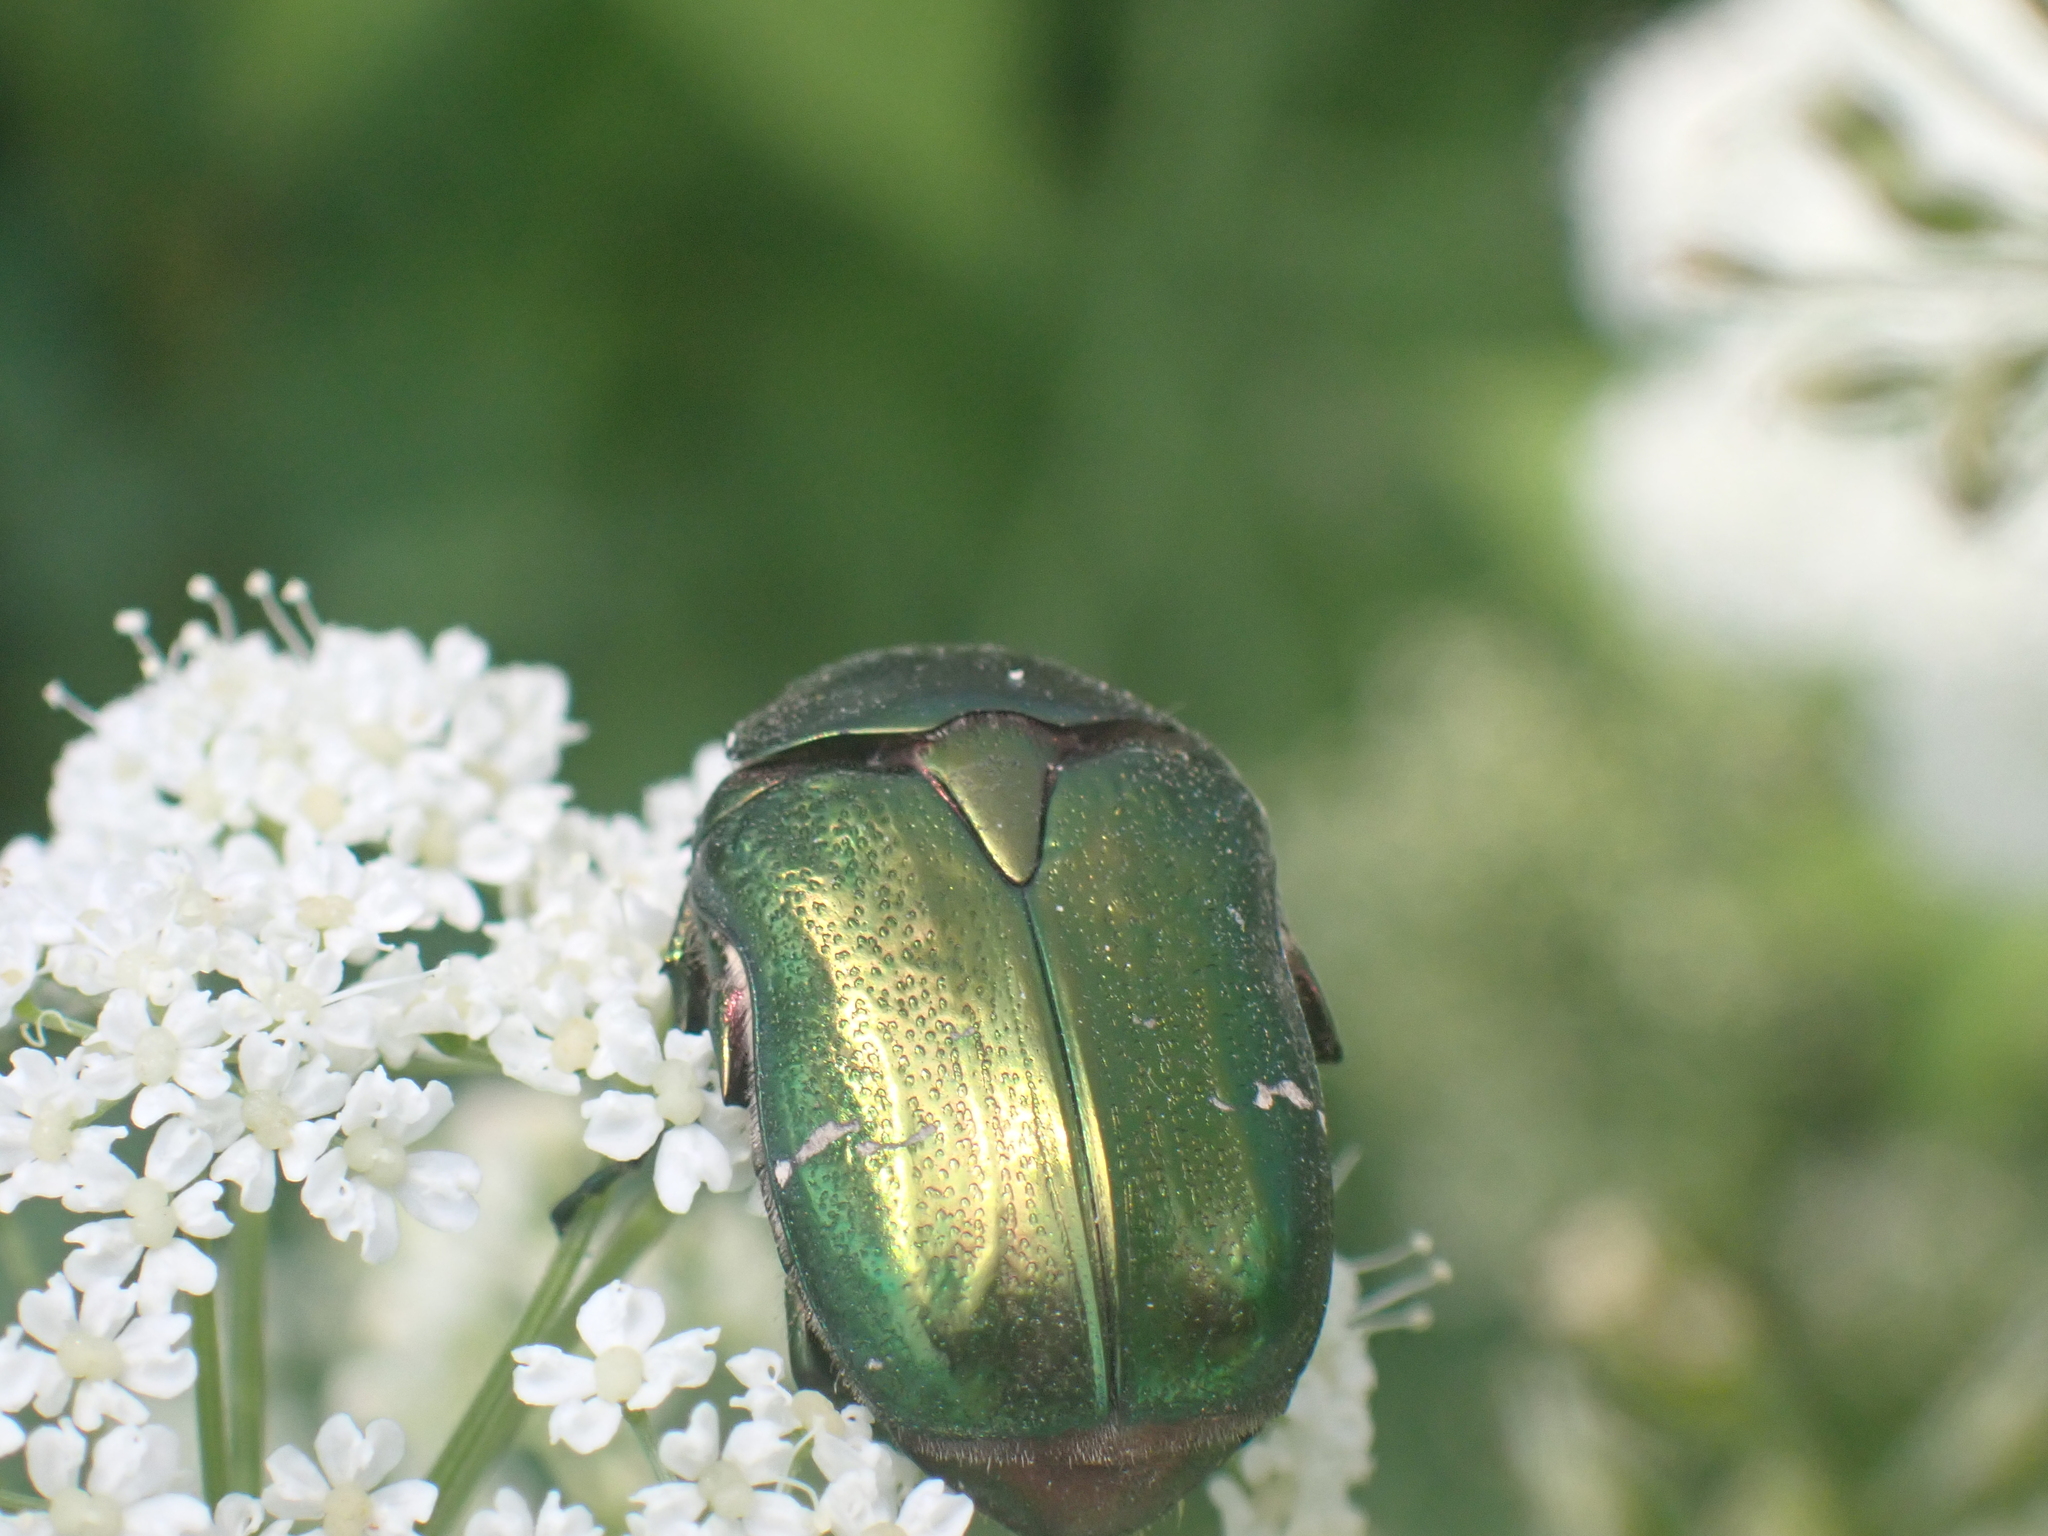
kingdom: Animalia
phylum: Arthropoda
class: Insecta
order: Coleoptera
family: Scarabaeidae
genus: Cetonia
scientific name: Cetonia aurata
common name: Rose chafer
